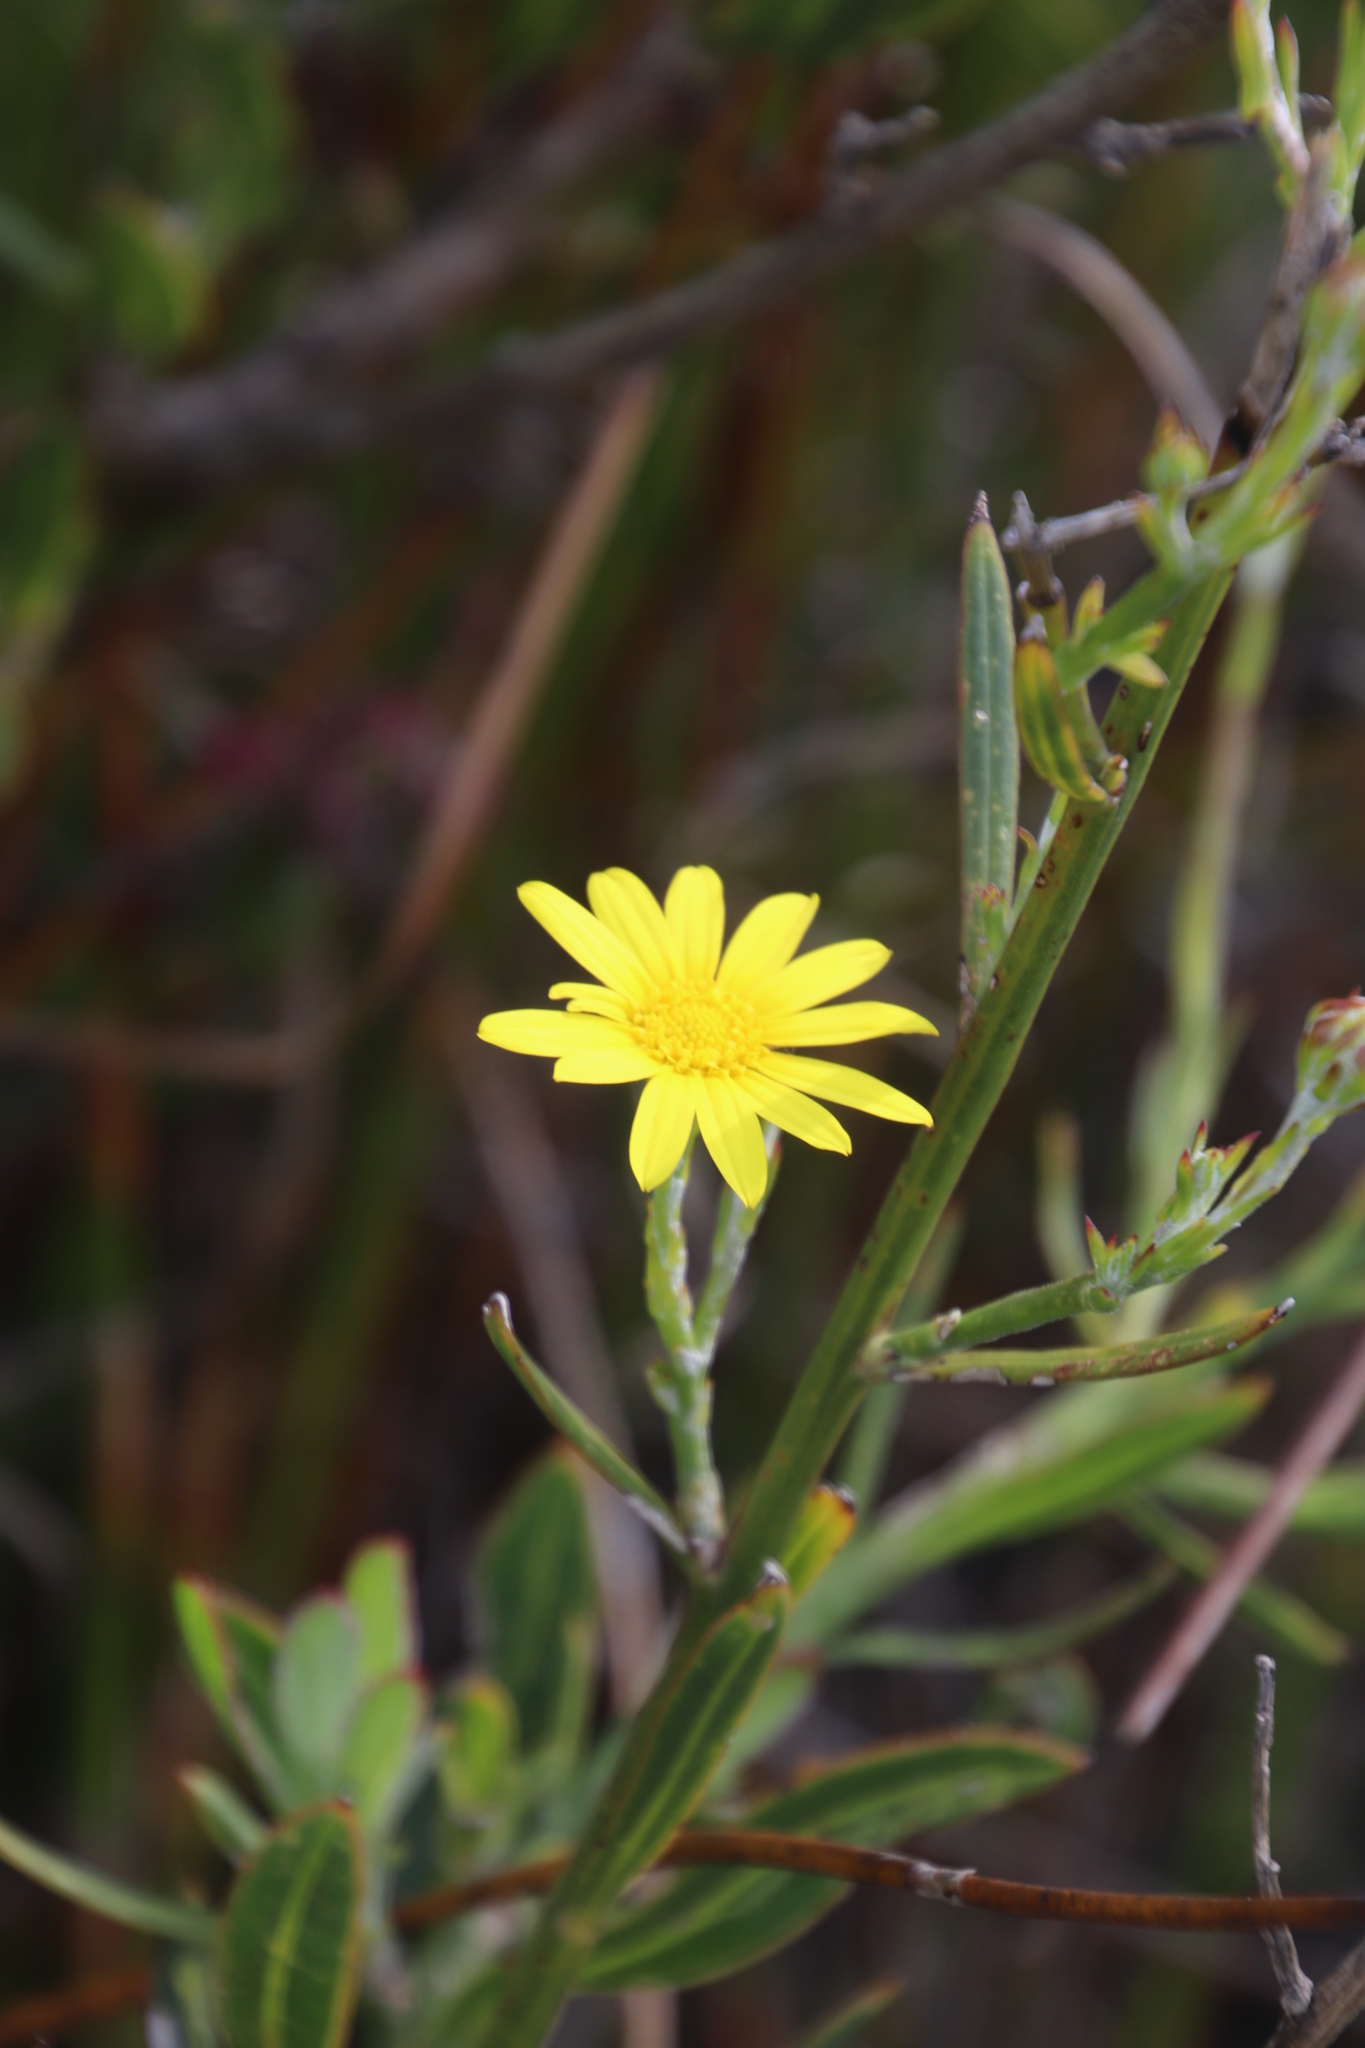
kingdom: Plantae
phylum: Tracheophyta
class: Magnoliopsida
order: Asterales
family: Asteraceae
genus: Osteospermum
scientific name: Osteospermum junceum
